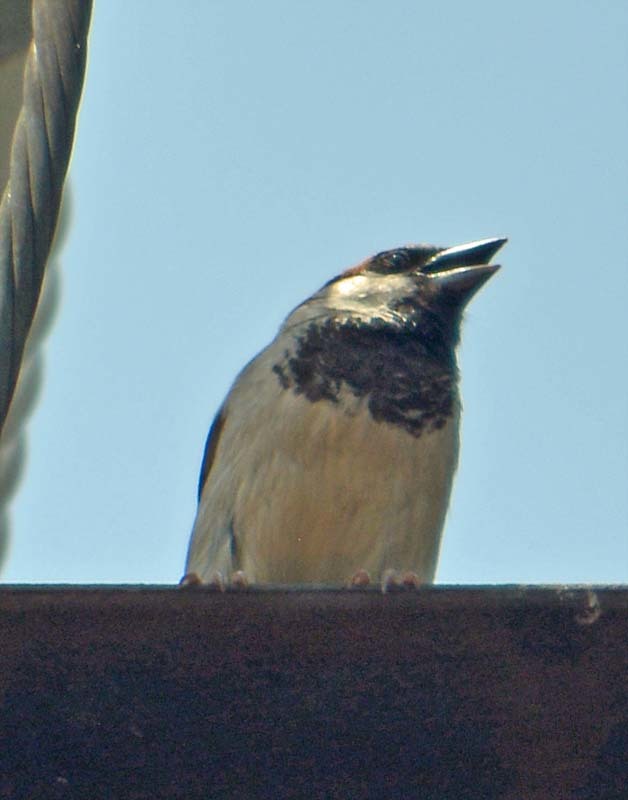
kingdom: Animalia
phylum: Chordata
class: Aves
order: Passeriformes
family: Passeridae
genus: Passer
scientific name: Passer domesticus
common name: House sparrow
